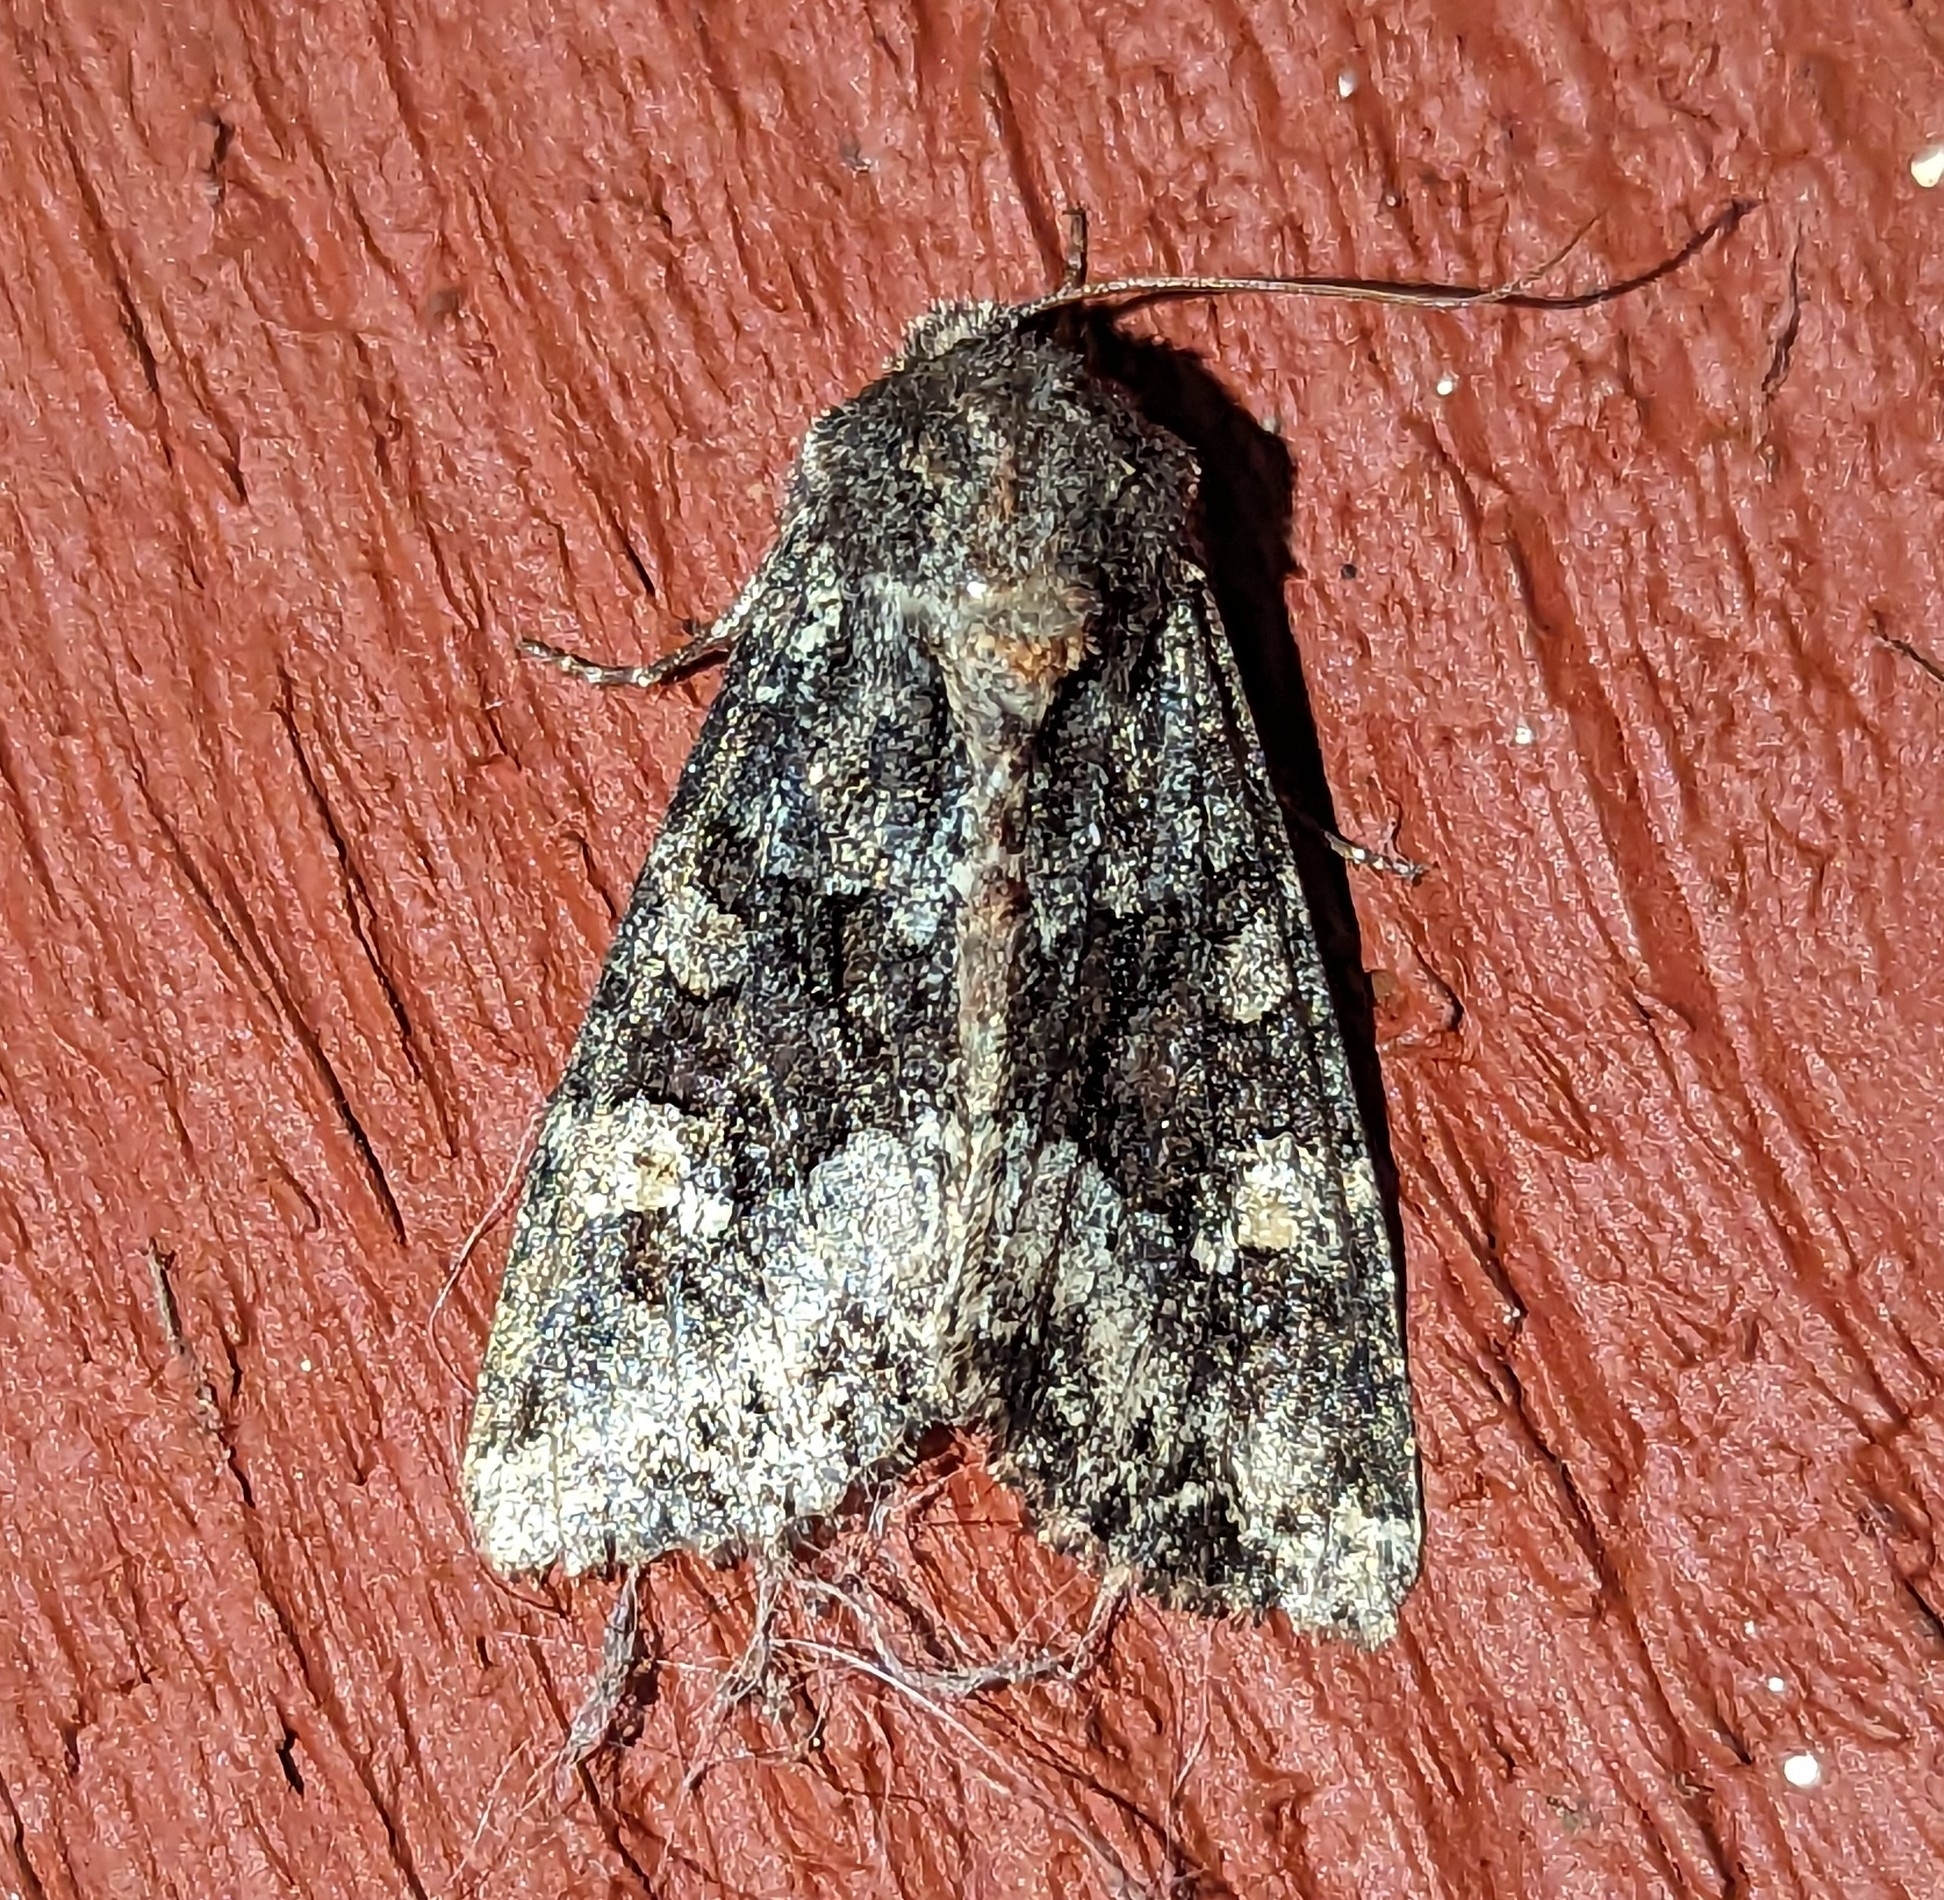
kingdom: Animalia
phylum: Arthropoda
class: Insecta
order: Lepidoptera
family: Noctuidae
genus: Apamea
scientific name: Apamea amputatrix
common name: Yellow-headed cutworm moth
